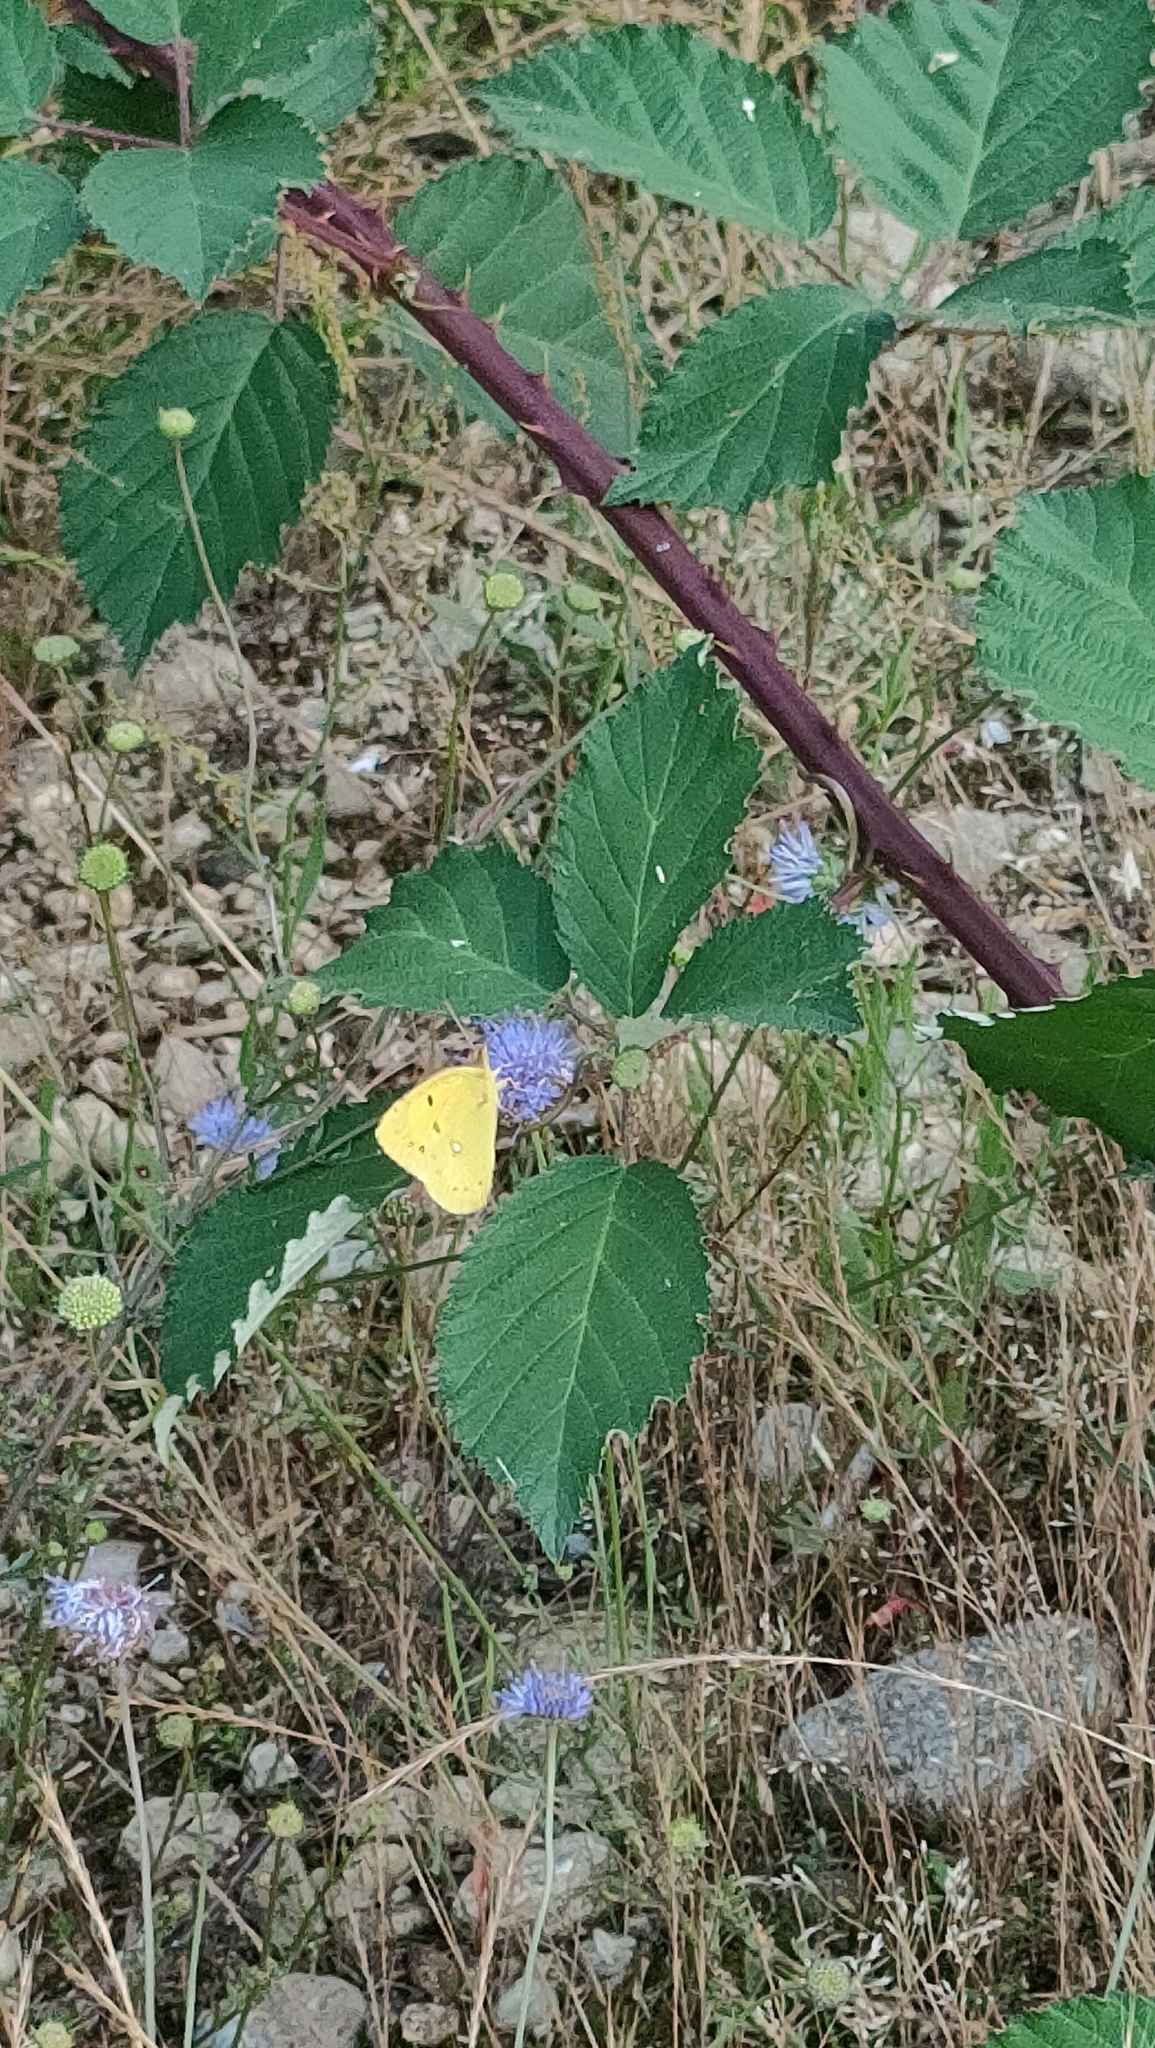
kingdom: Animalia
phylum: Arthropoda
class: Insecta
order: Lepidoptera
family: Pieridae
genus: Colias
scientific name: Colias croceus
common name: Clouded yellow
